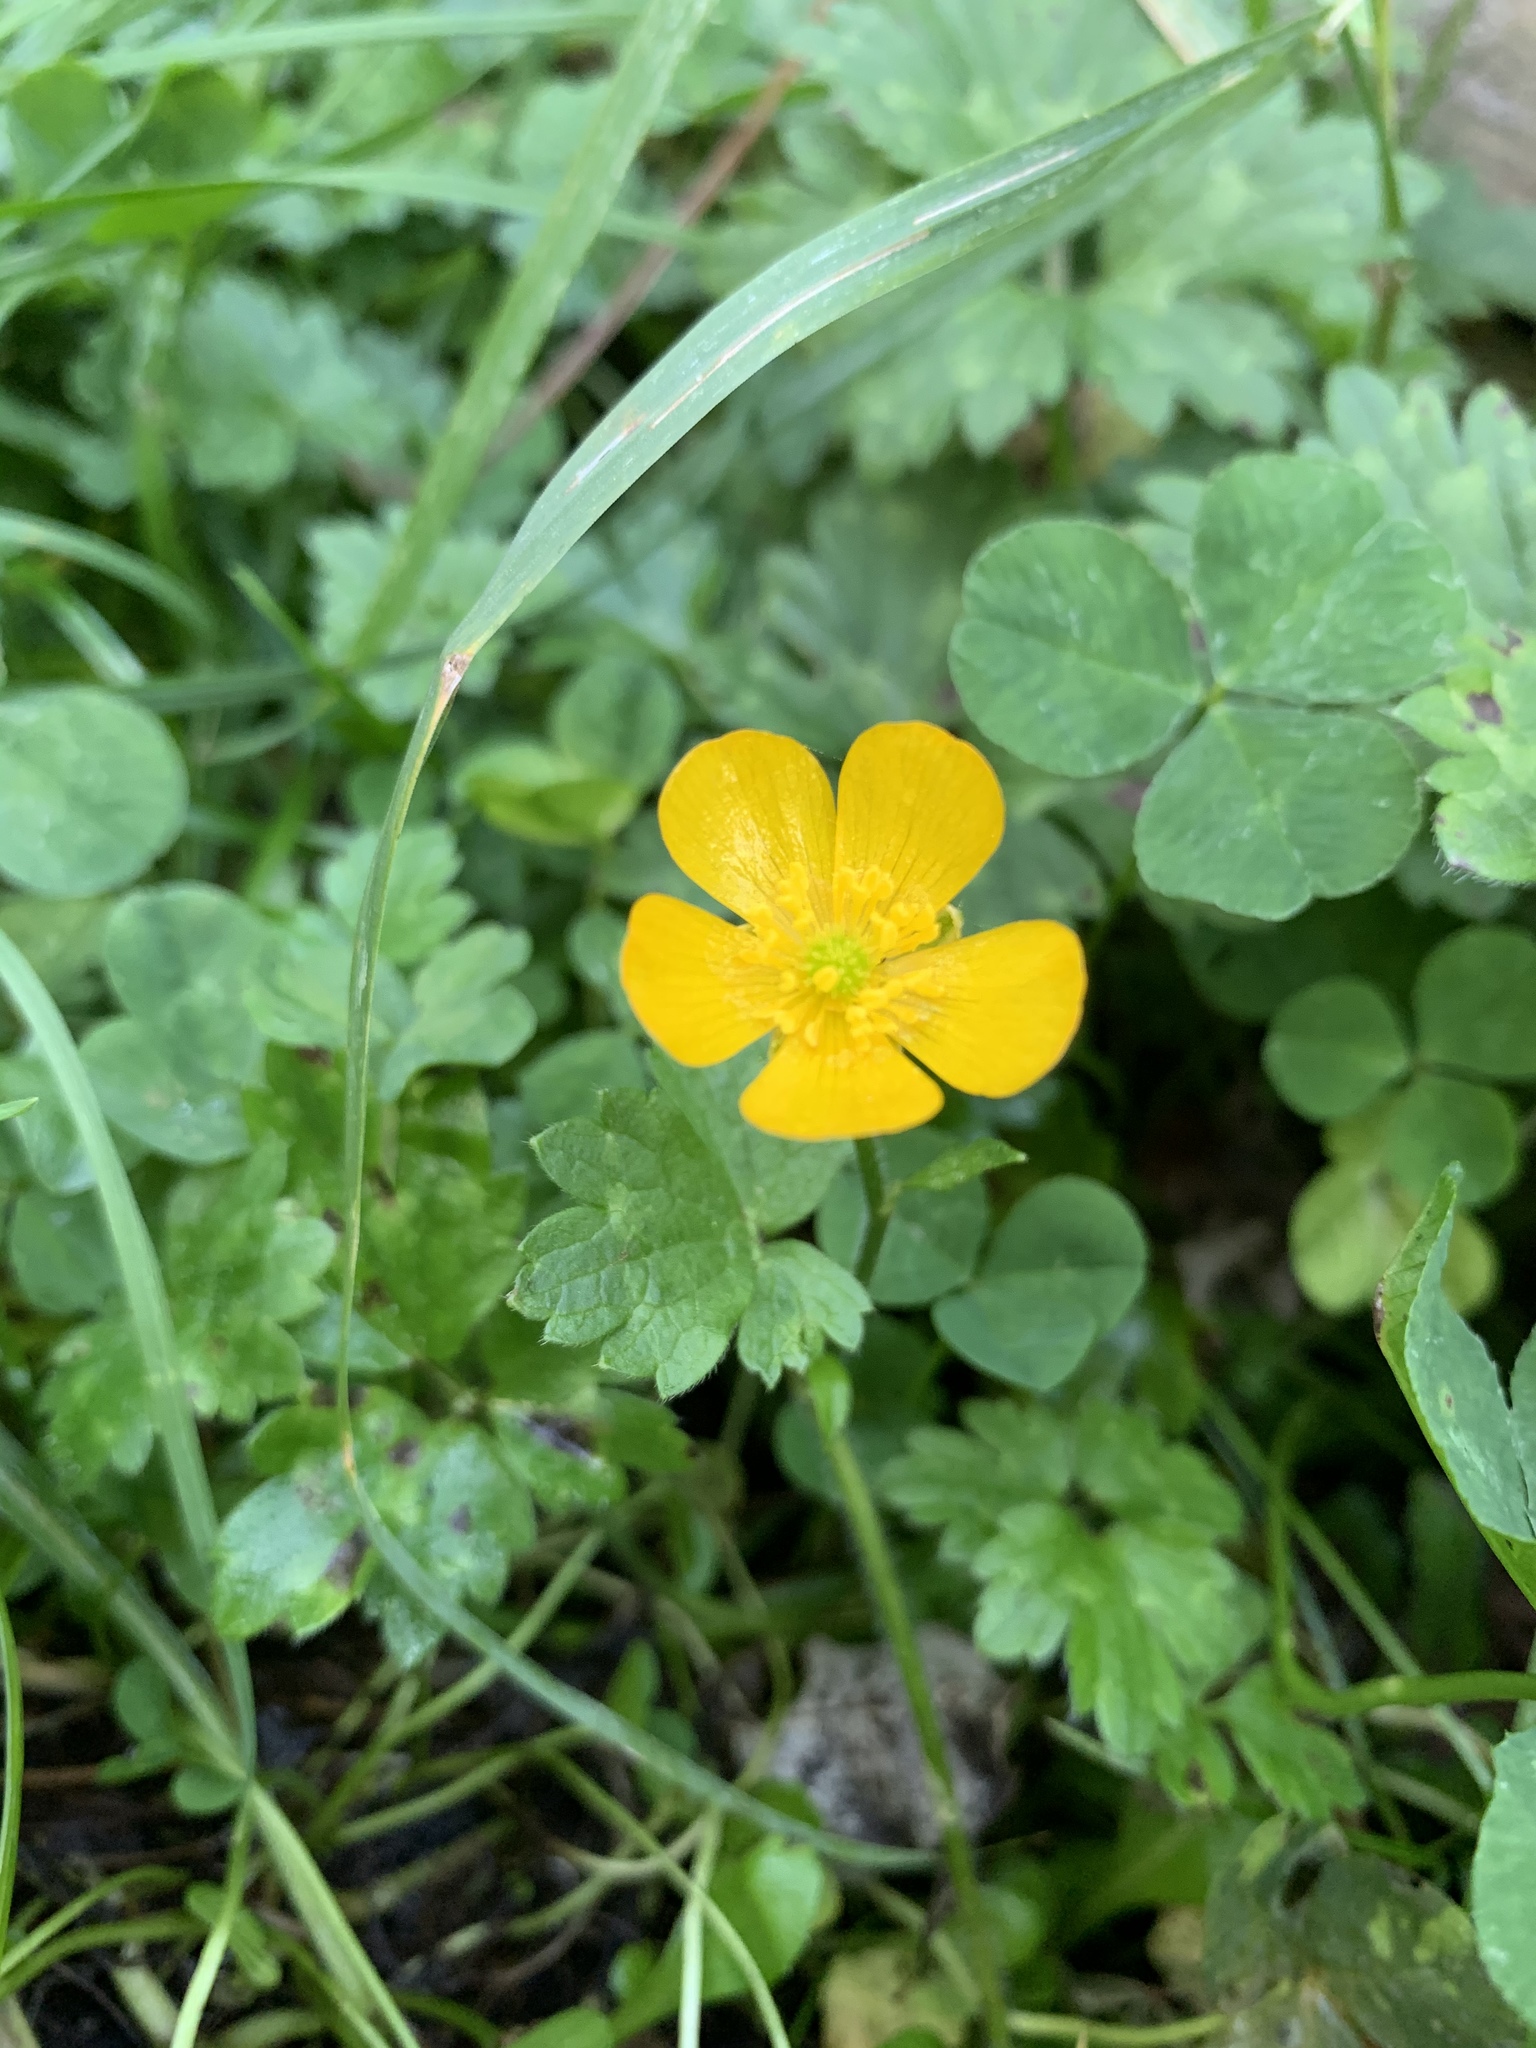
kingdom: Plantae
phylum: Tracheophyta
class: Magnoliopsida
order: Ranunculales
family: Ranunculaceae
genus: Ranunculus
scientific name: Ranunculus repens
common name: Creeping buttercup
